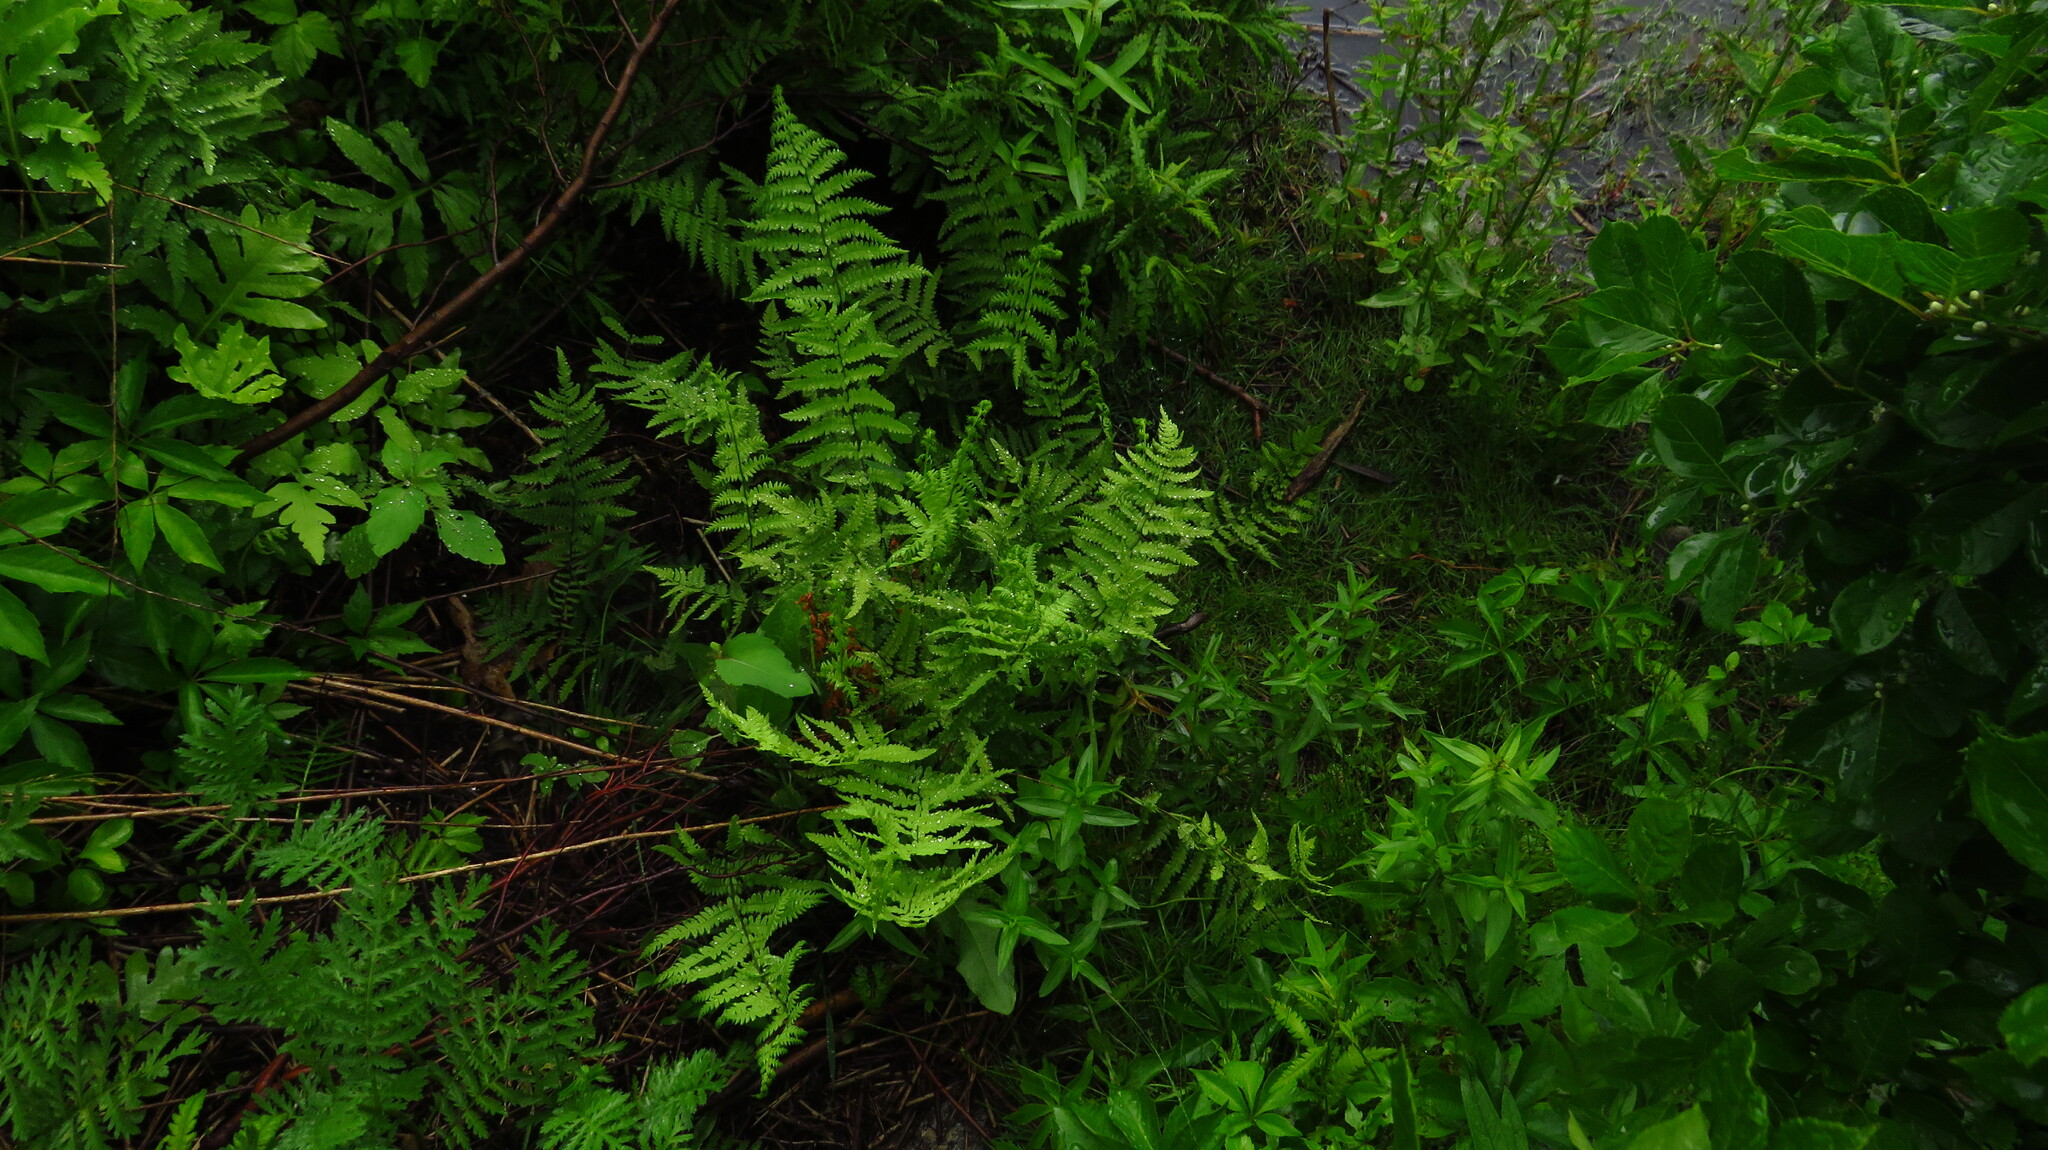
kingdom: Plantae
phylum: Tracheophyta
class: Polypodiopsida
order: Polypodiales
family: Thelypteridaceae
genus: Thelypteris
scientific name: Thelypteris palustris
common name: Marsh fern
